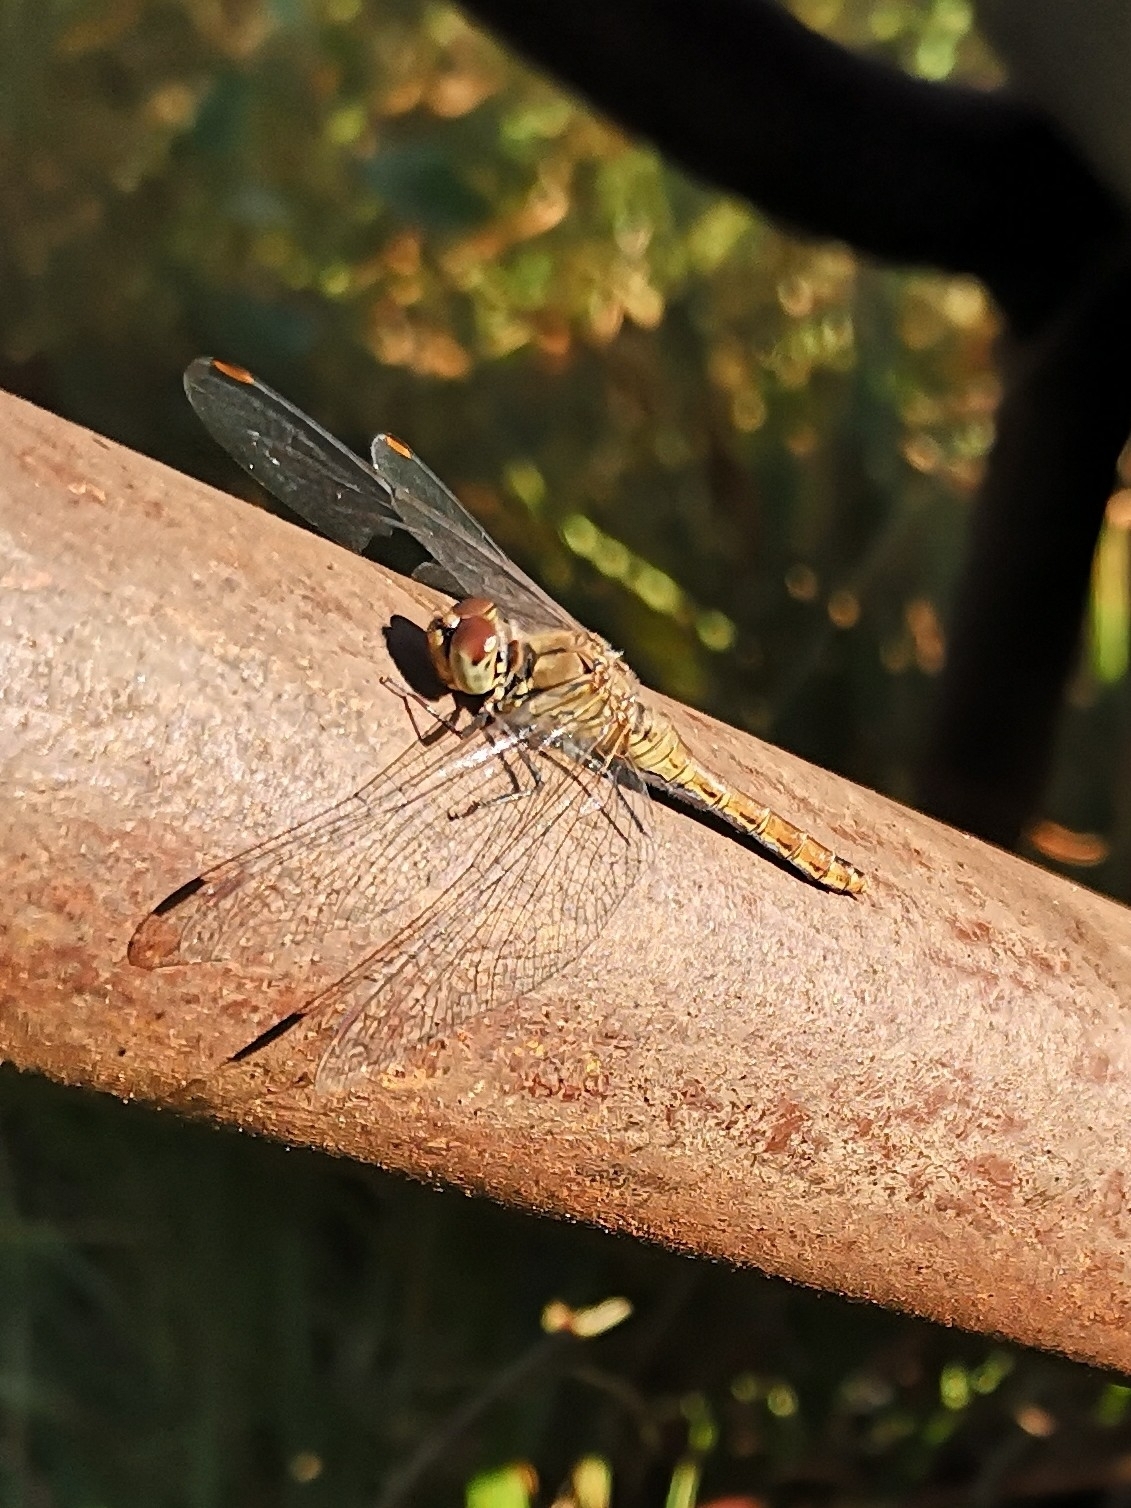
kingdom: Animalia
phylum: Arthropoda
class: Insecta
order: Odonata
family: Libellulidae
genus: Sympetrum
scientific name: Sympetrum sanguineum
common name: Ruddy darter
